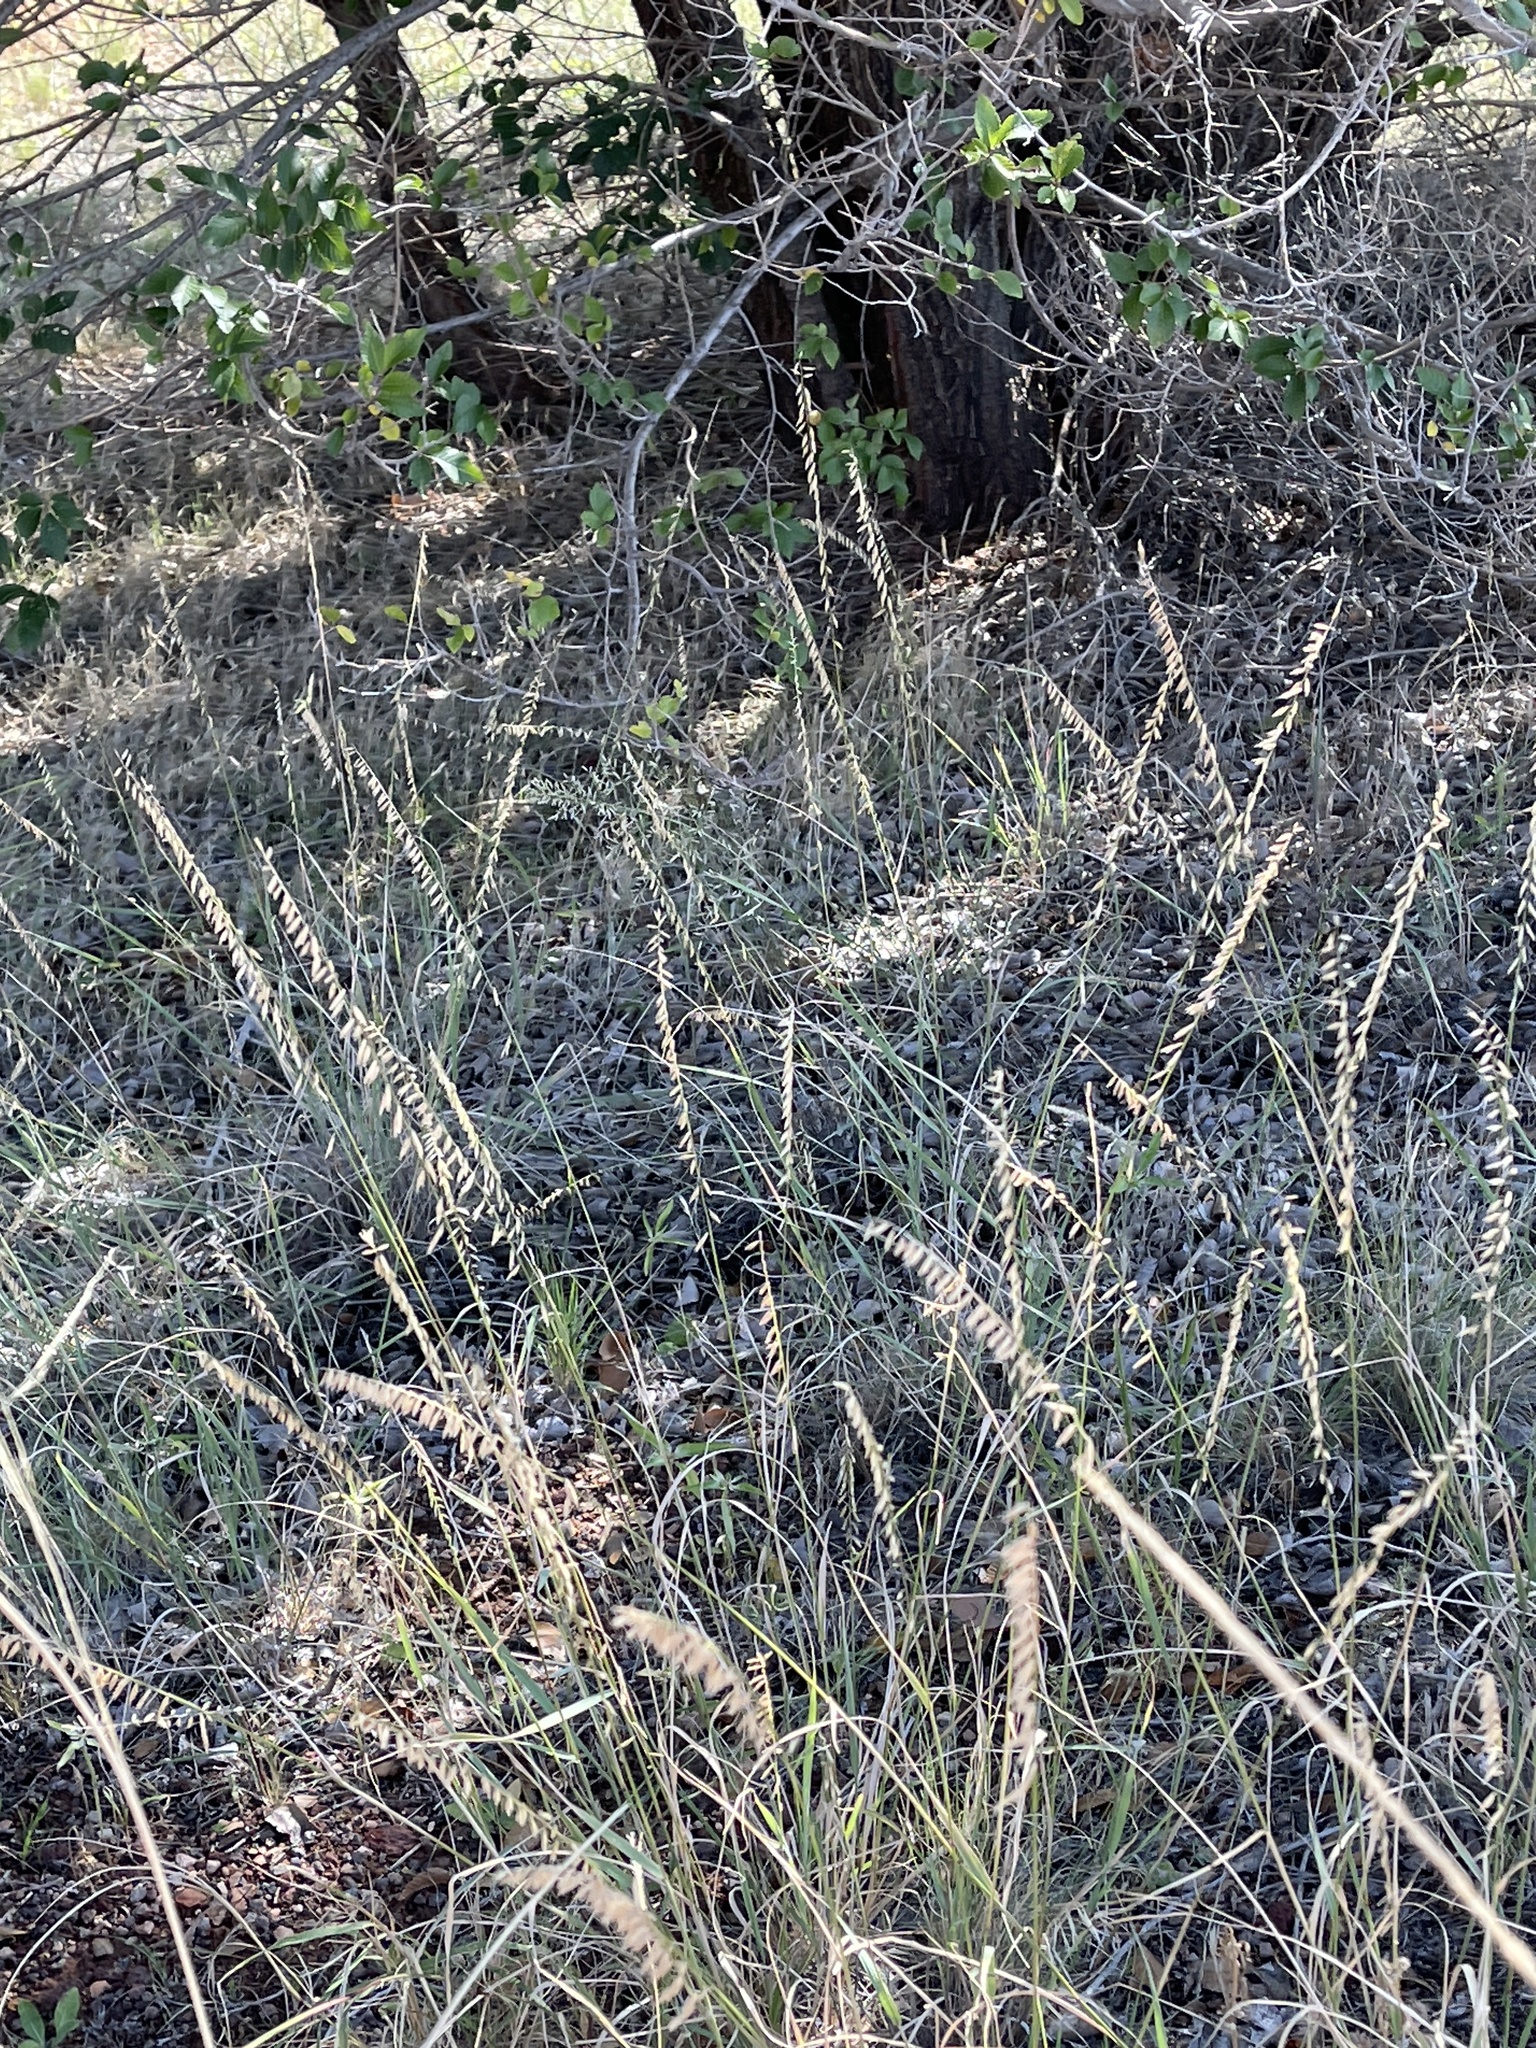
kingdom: Plantae
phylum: Tracheophyta
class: Liliopsida
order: Poales
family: Poaceae
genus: Bouteloua
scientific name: Bouteloua curtipendula
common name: Side-oats grama
